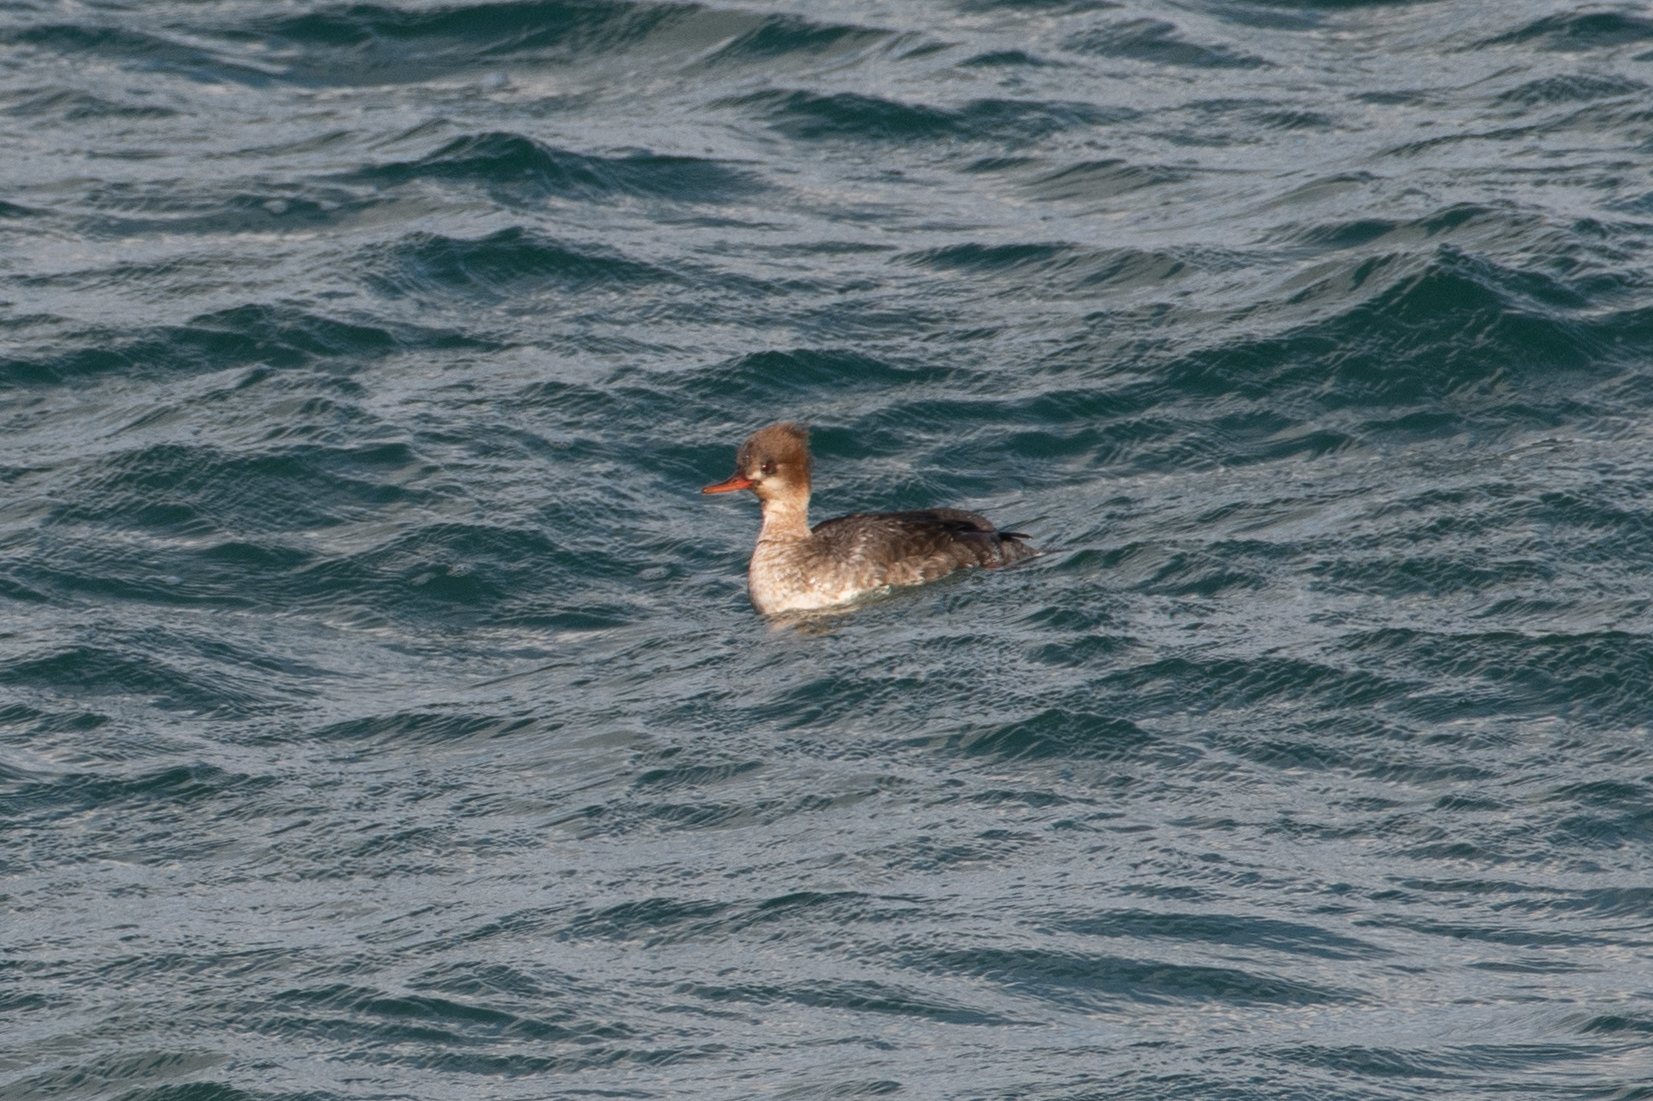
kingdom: Animalia
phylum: Chordata
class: Aves
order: Anseriformes
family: Anatidae
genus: Mergus
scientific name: Mergus serrator
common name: Red-breasted merganser
